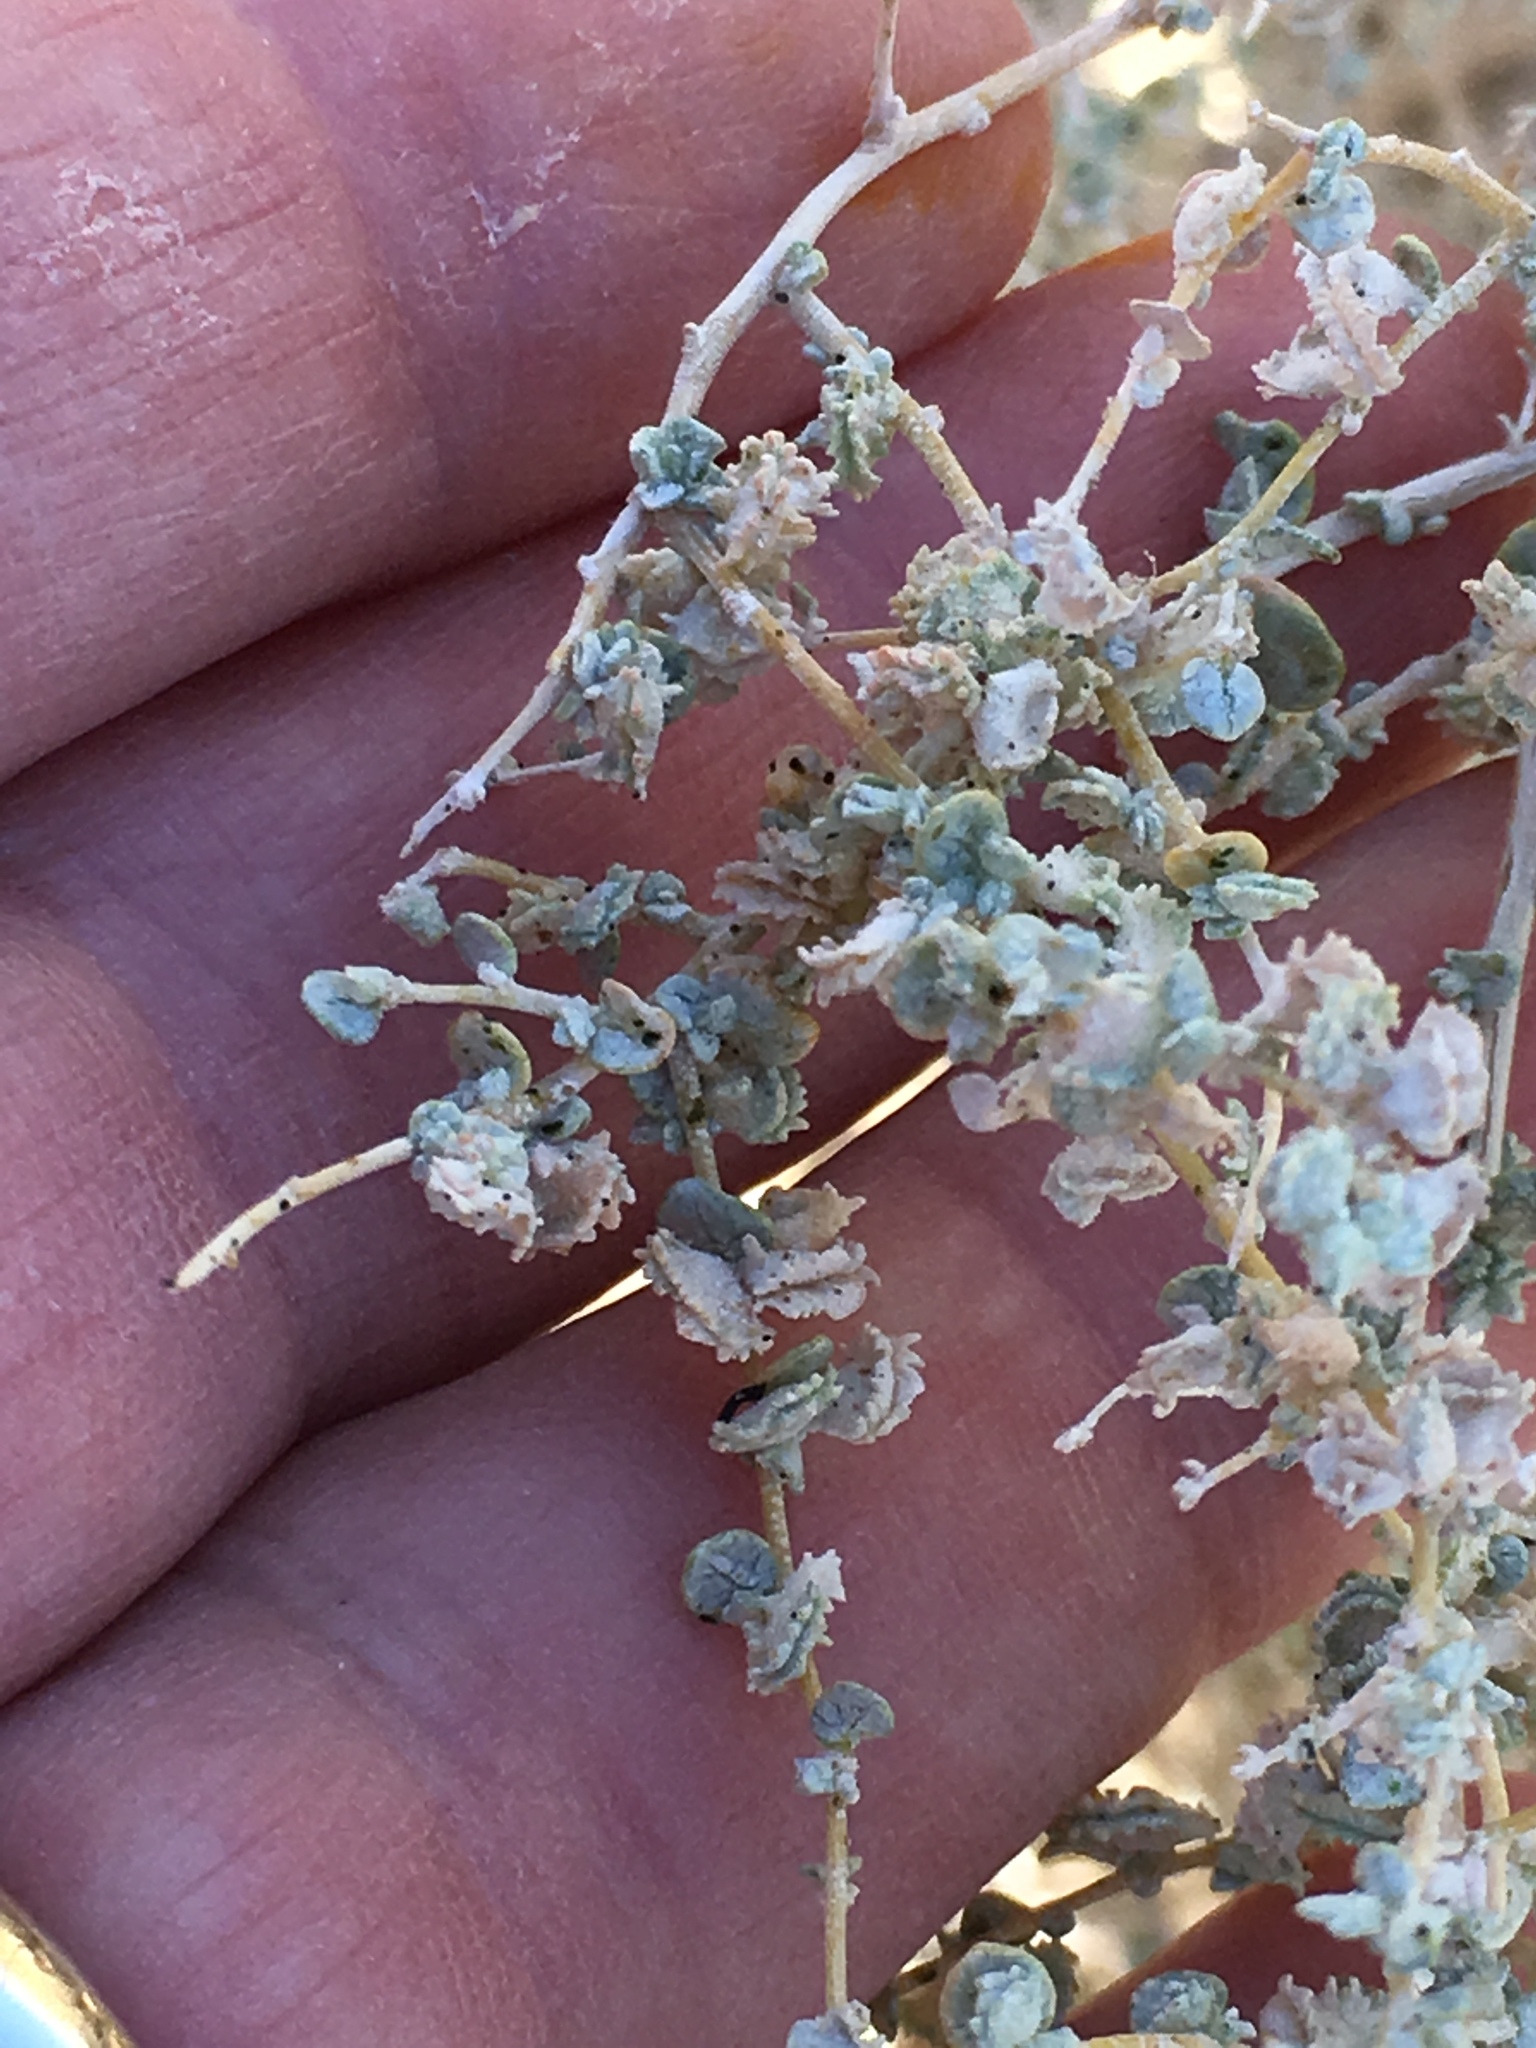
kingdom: Plantae
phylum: Tracheophyta
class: Magnoliopsida
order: Caryophyllales
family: Amaranthaceae
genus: Atriplex
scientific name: Atriplex polycarpa
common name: Desert saltbush
